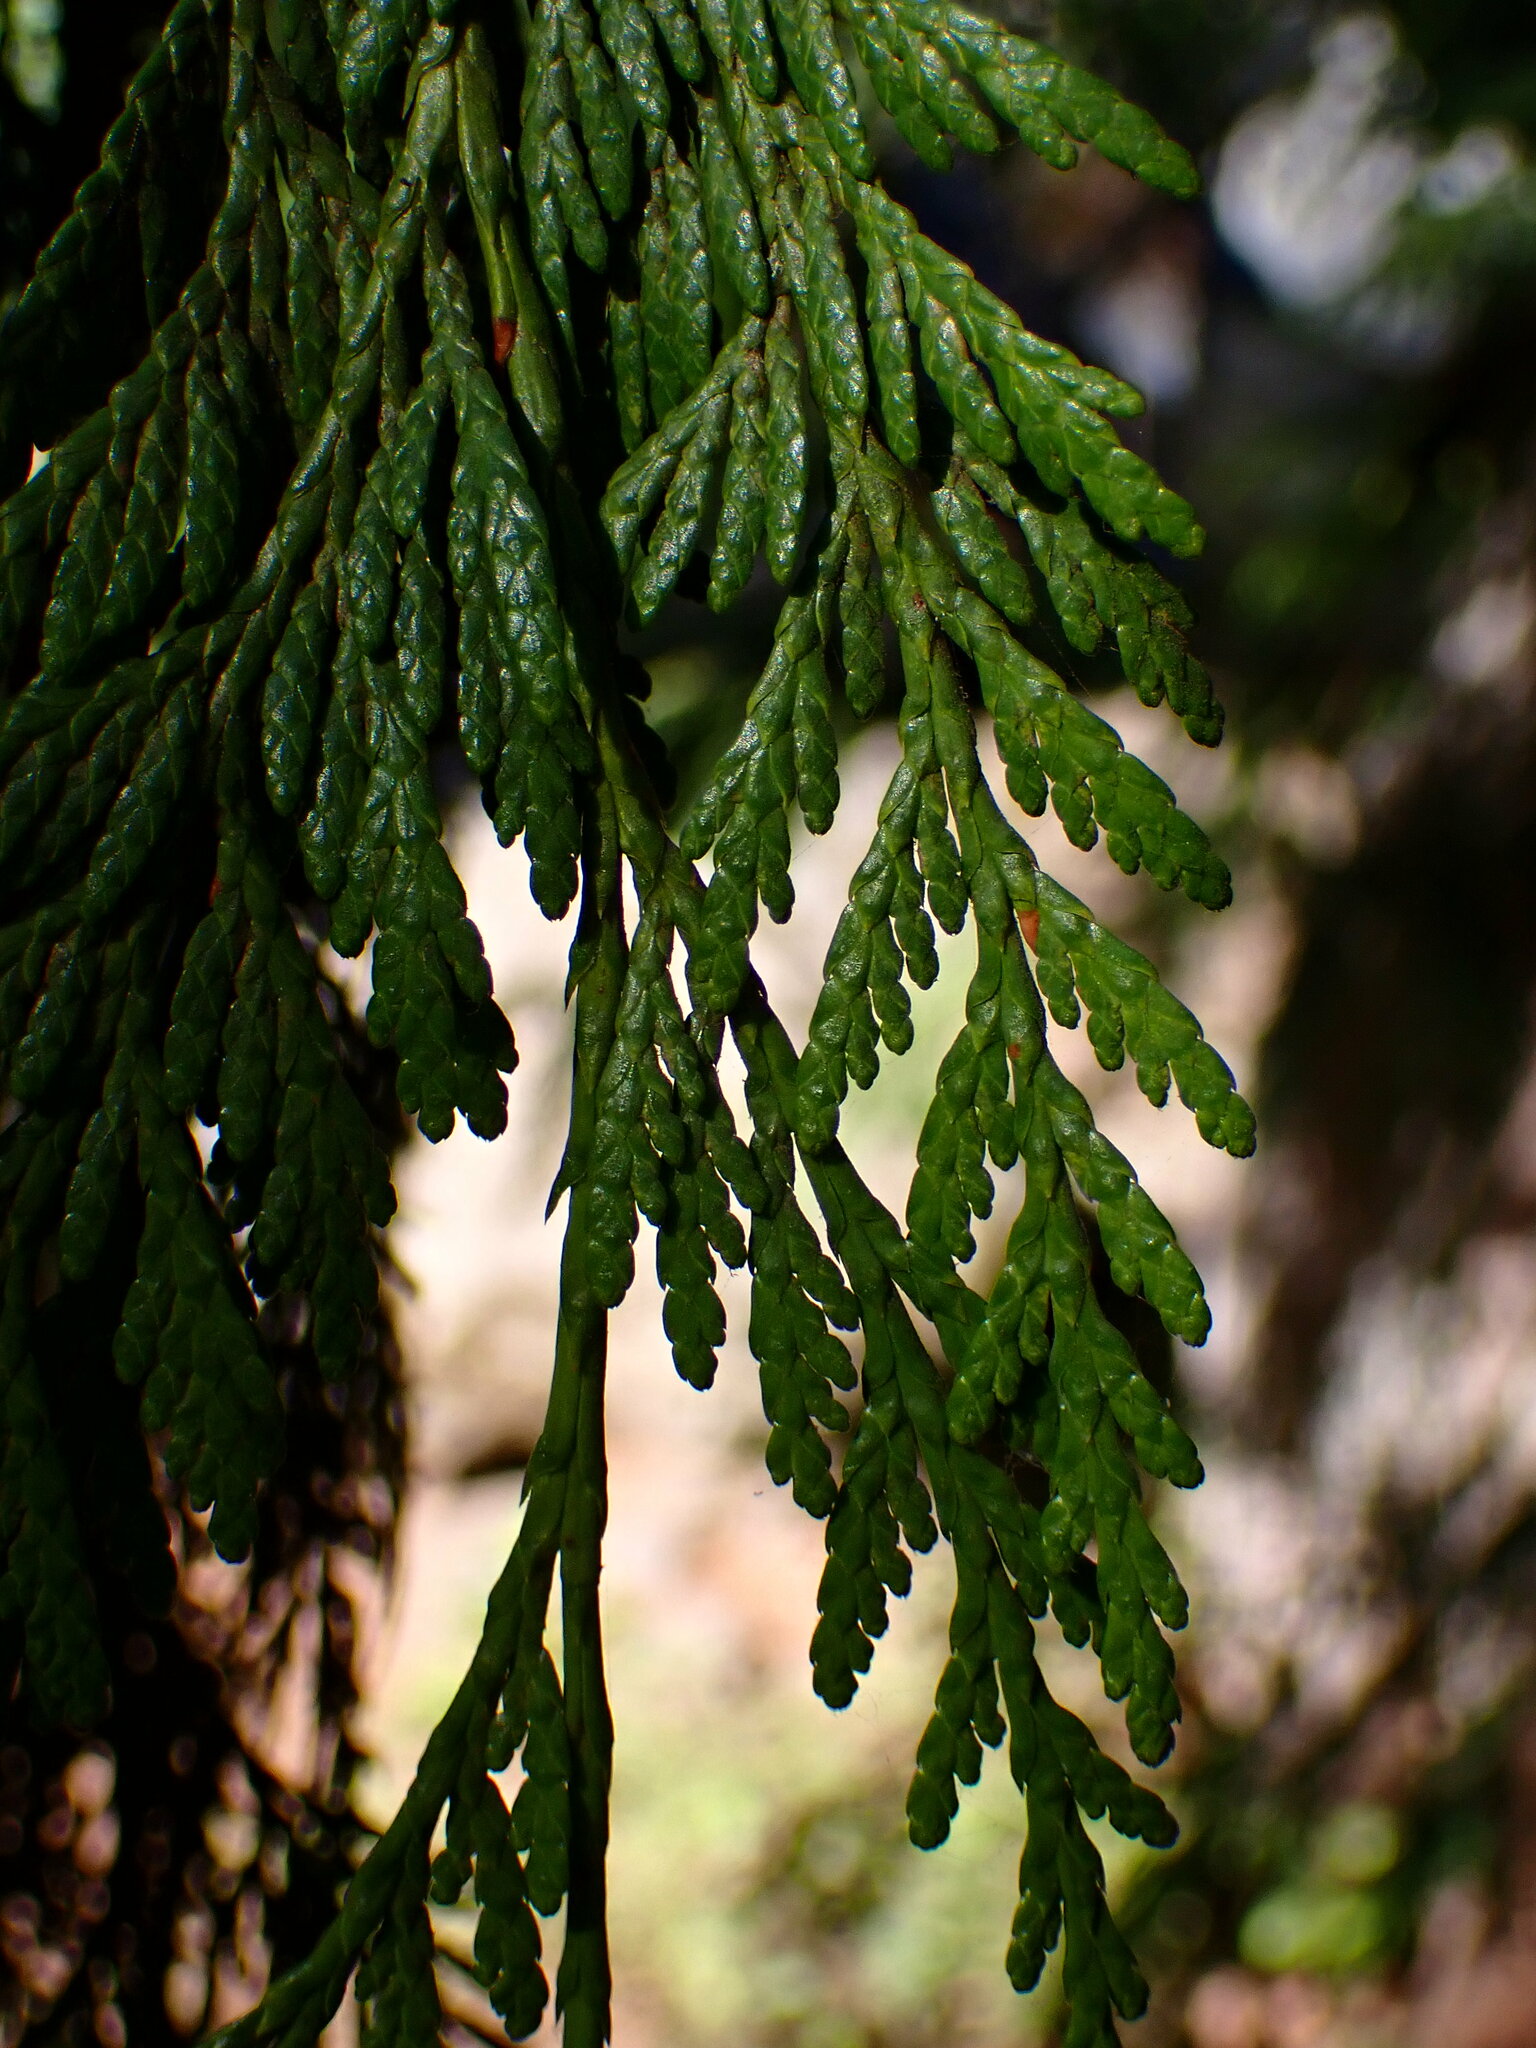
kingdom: Plantae
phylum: Tracheophyta
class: Pinopsida
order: Pinales
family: Cupressaceae
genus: Thuja
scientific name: Thuja plicata
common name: Western red-cedar
